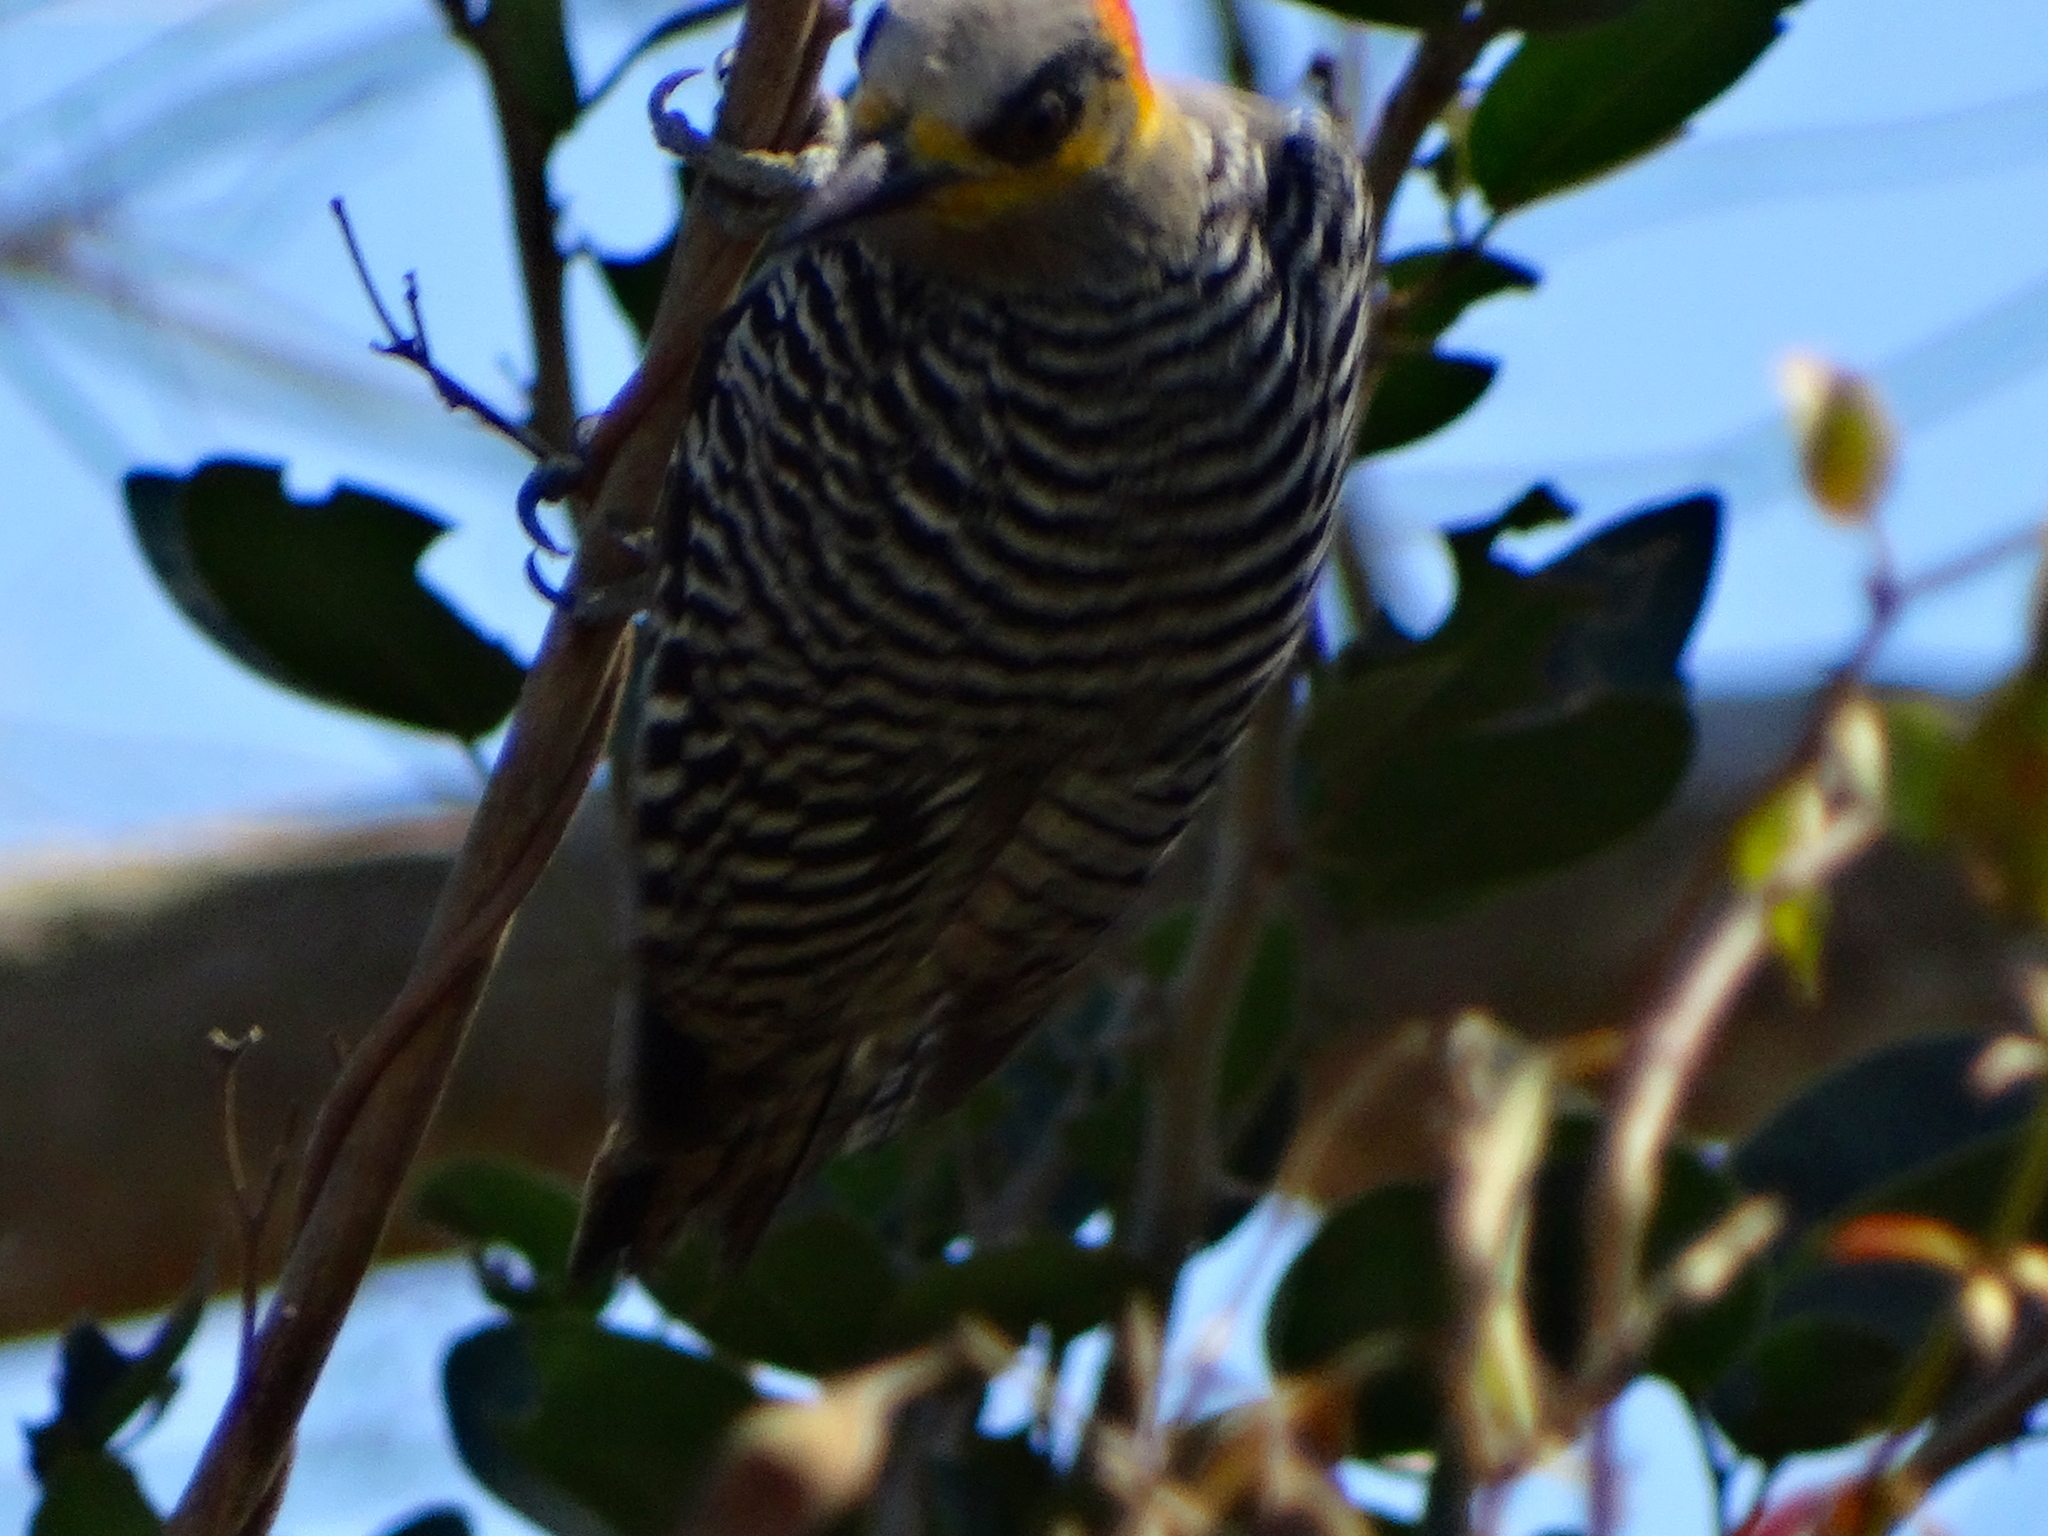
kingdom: Animalia
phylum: Chordata
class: Aves
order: Piciformes
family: Picidae
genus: Melanerpes
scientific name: Melanerpes chrysogenys
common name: Golden-cheeked woodpecker
